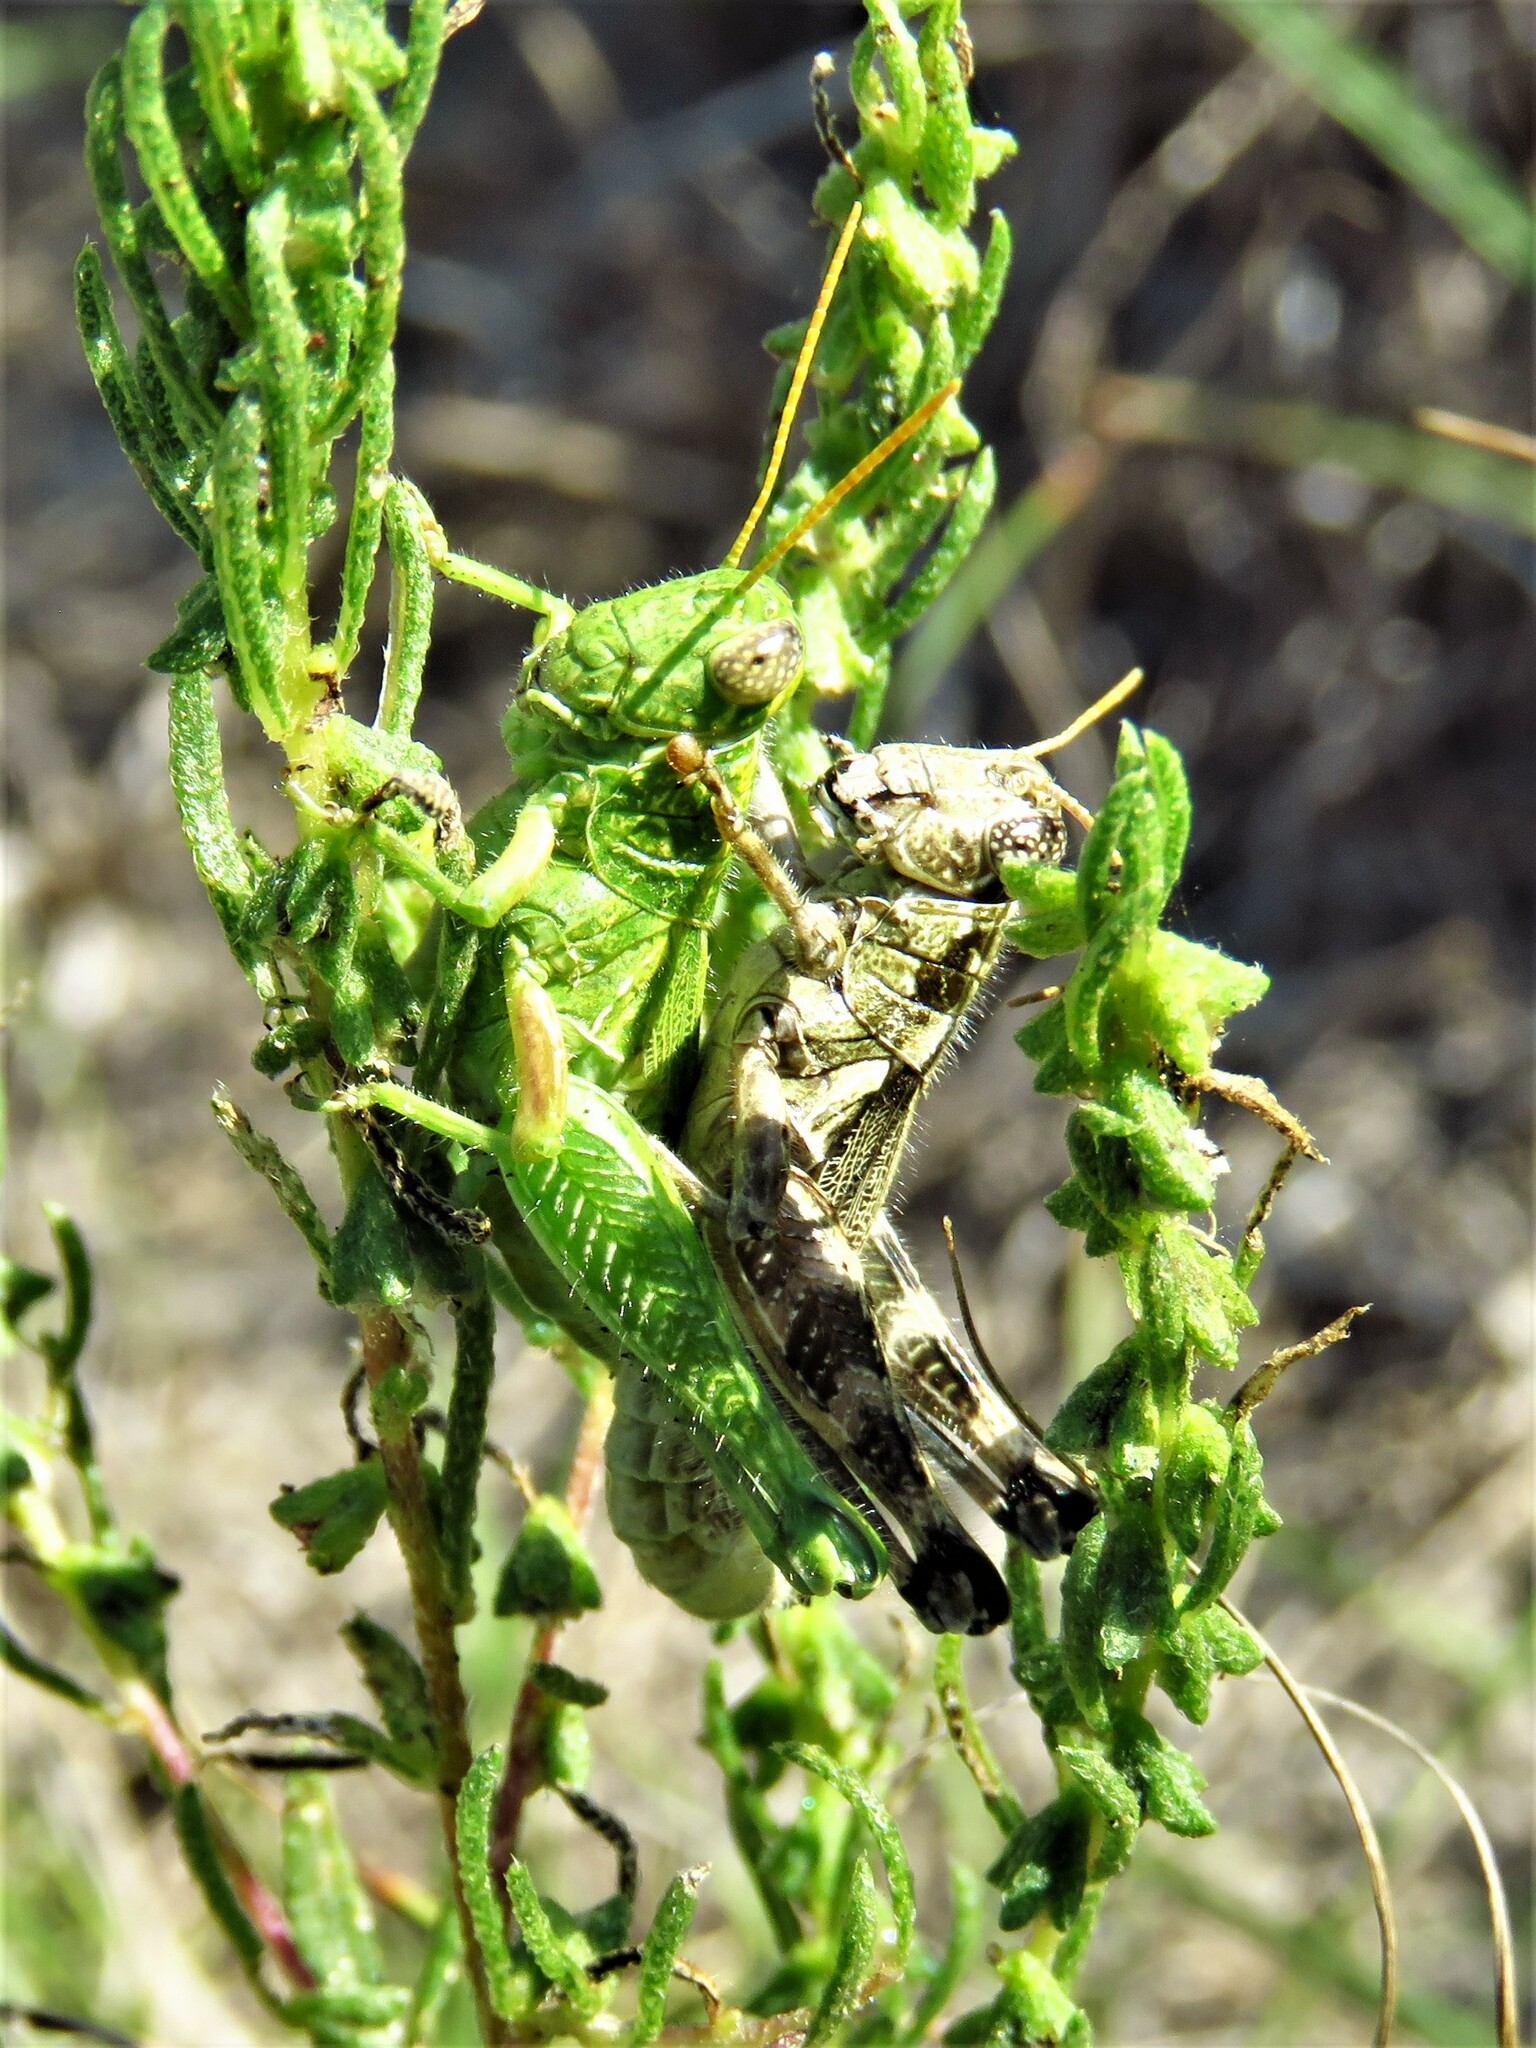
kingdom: Animalia
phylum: Arthropoda
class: Insecta
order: Orthoptera
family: Acrididae
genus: Campylacantha
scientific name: Campylacantha olivacea
